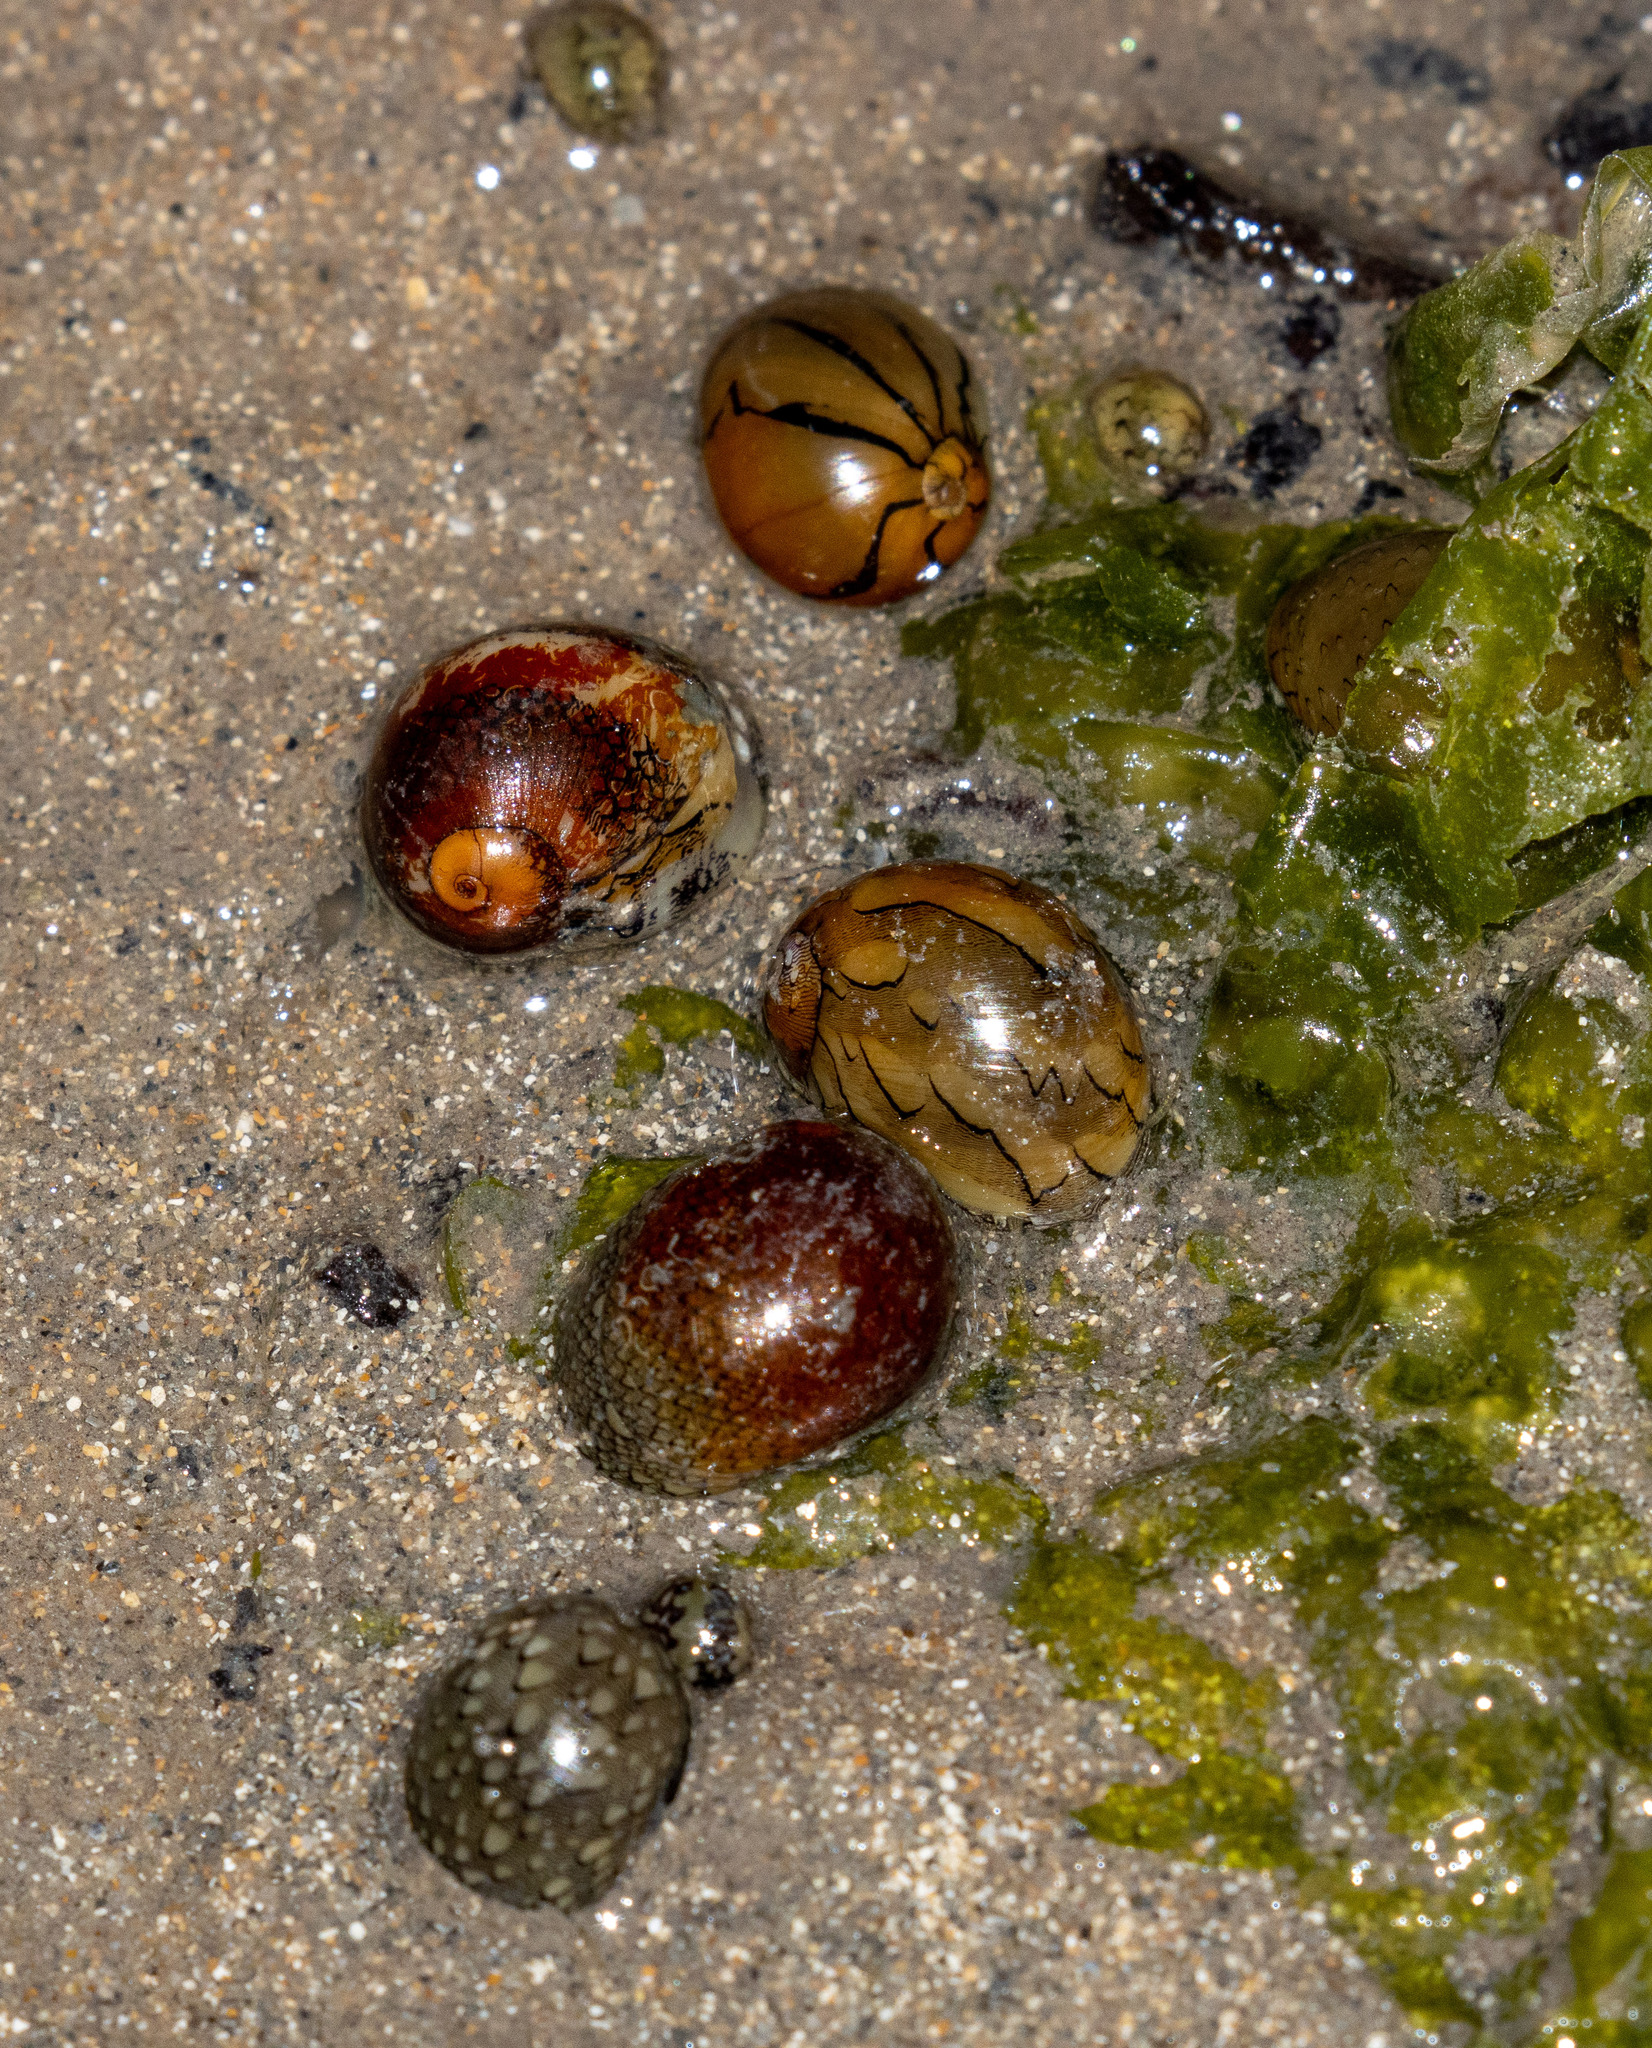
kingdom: Animalia
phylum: Mollusca
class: Gastropoda
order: Cycloneritida
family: Neritidae
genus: Vitta
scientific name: Vitta virginea
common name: Virgin nerite
